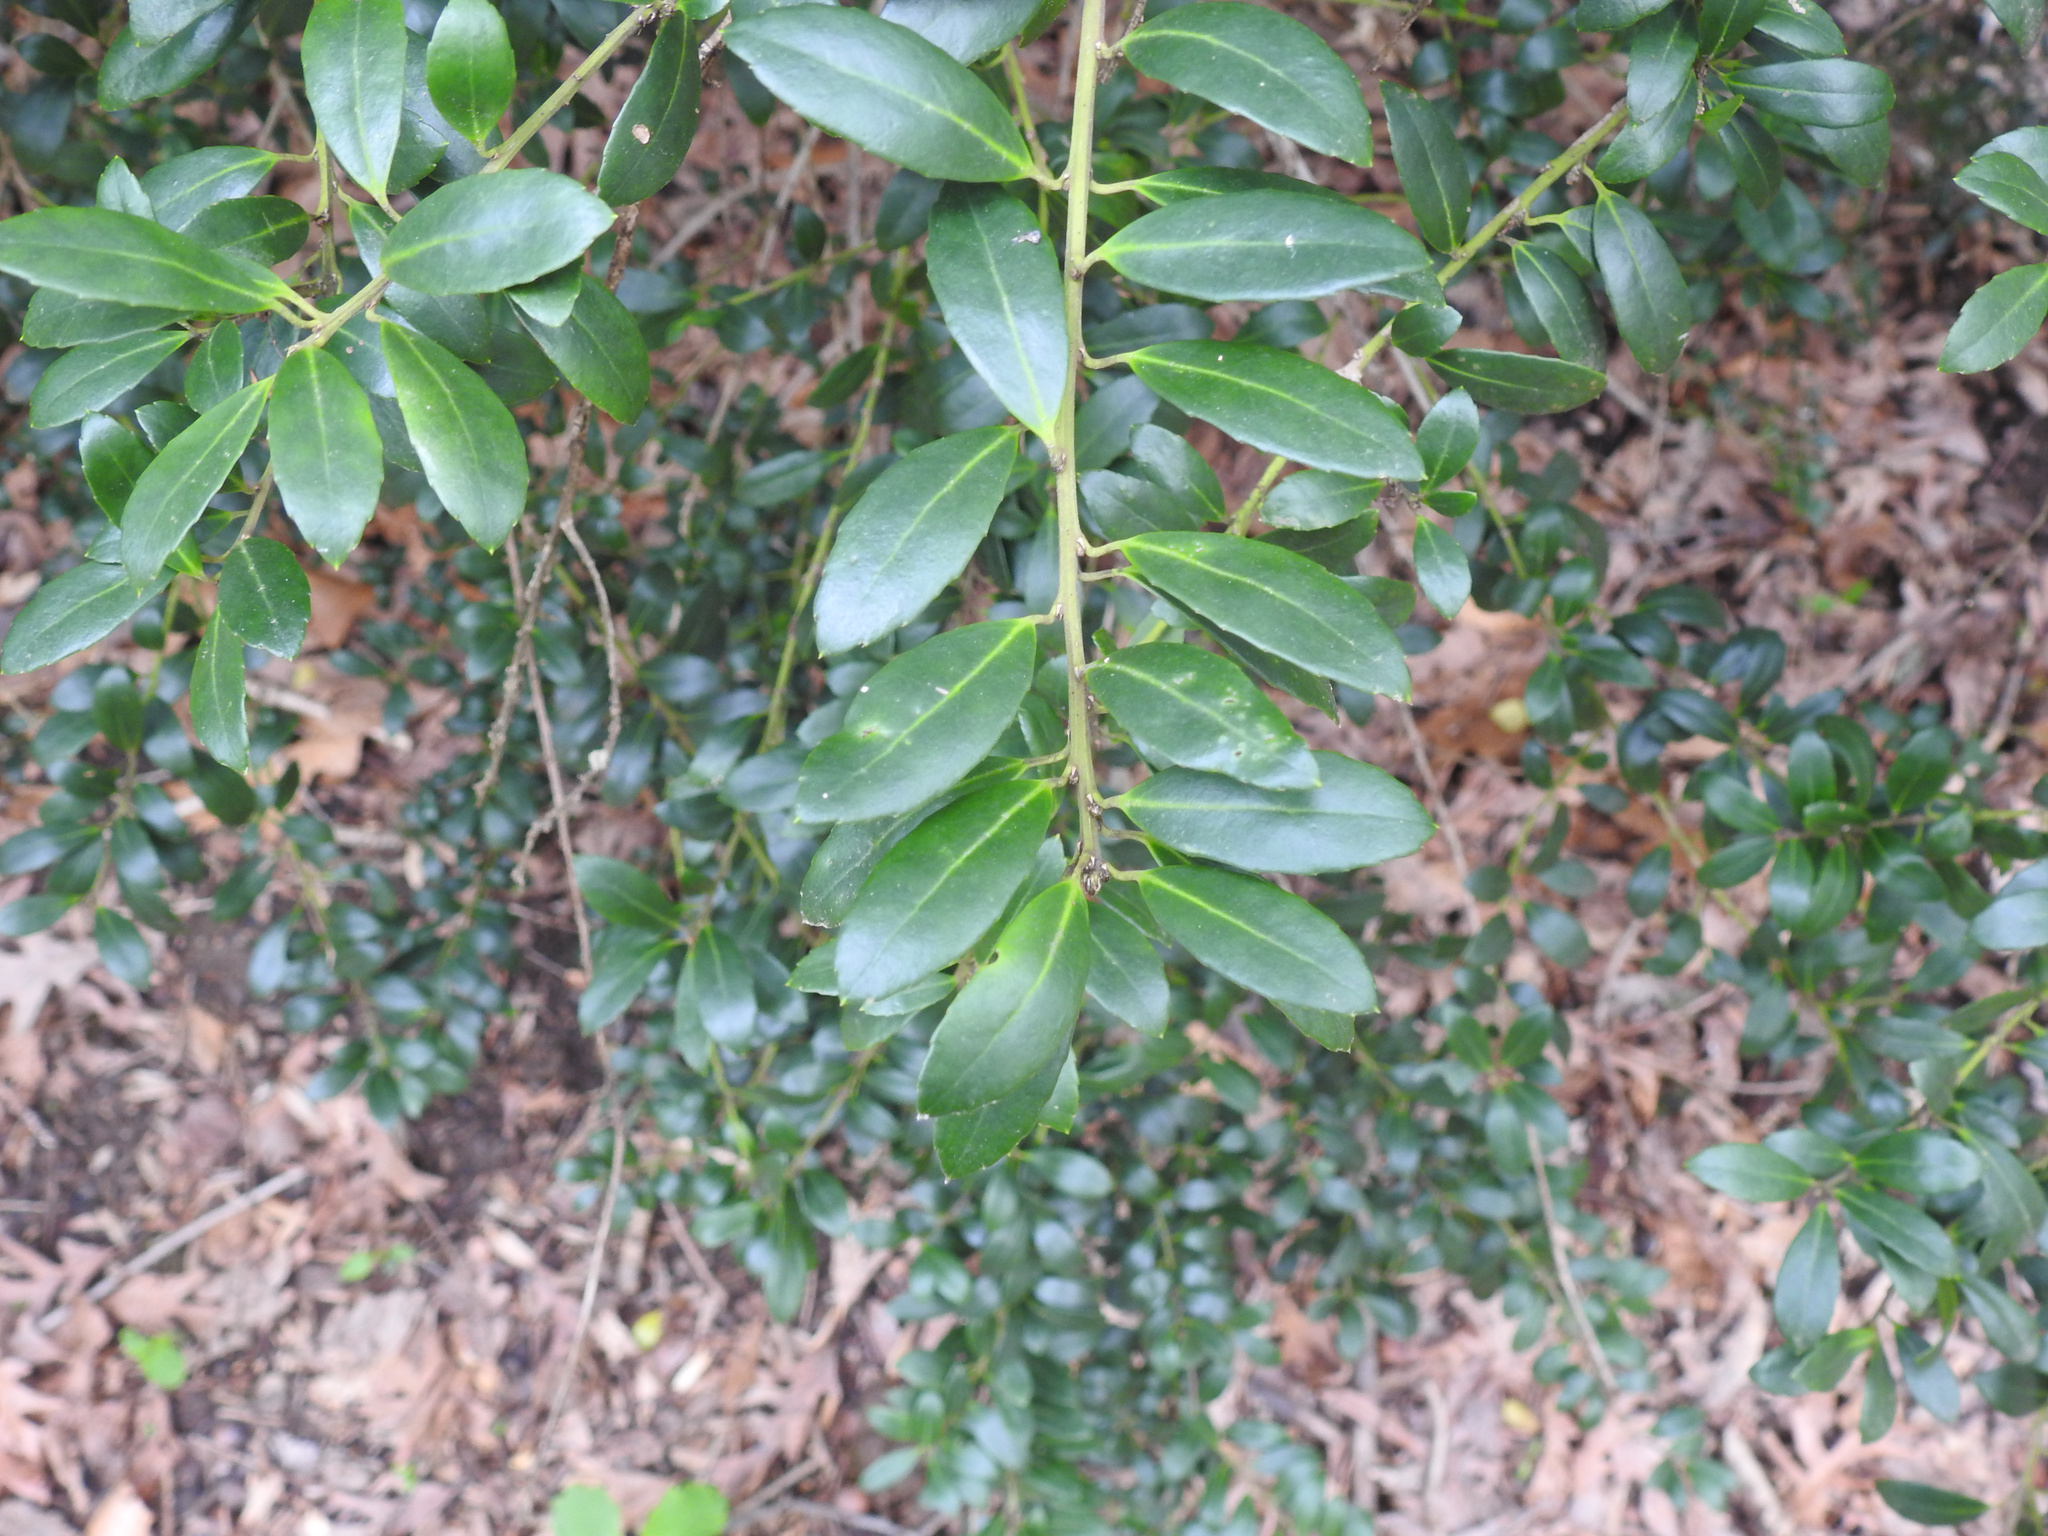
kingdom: Plantae
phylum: Tracheophyta
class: Magnoliopsida
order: Aquifoliales
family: Aquifoliaceae
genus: Ilex
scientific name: Ilex crenata
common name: Japanese holly
